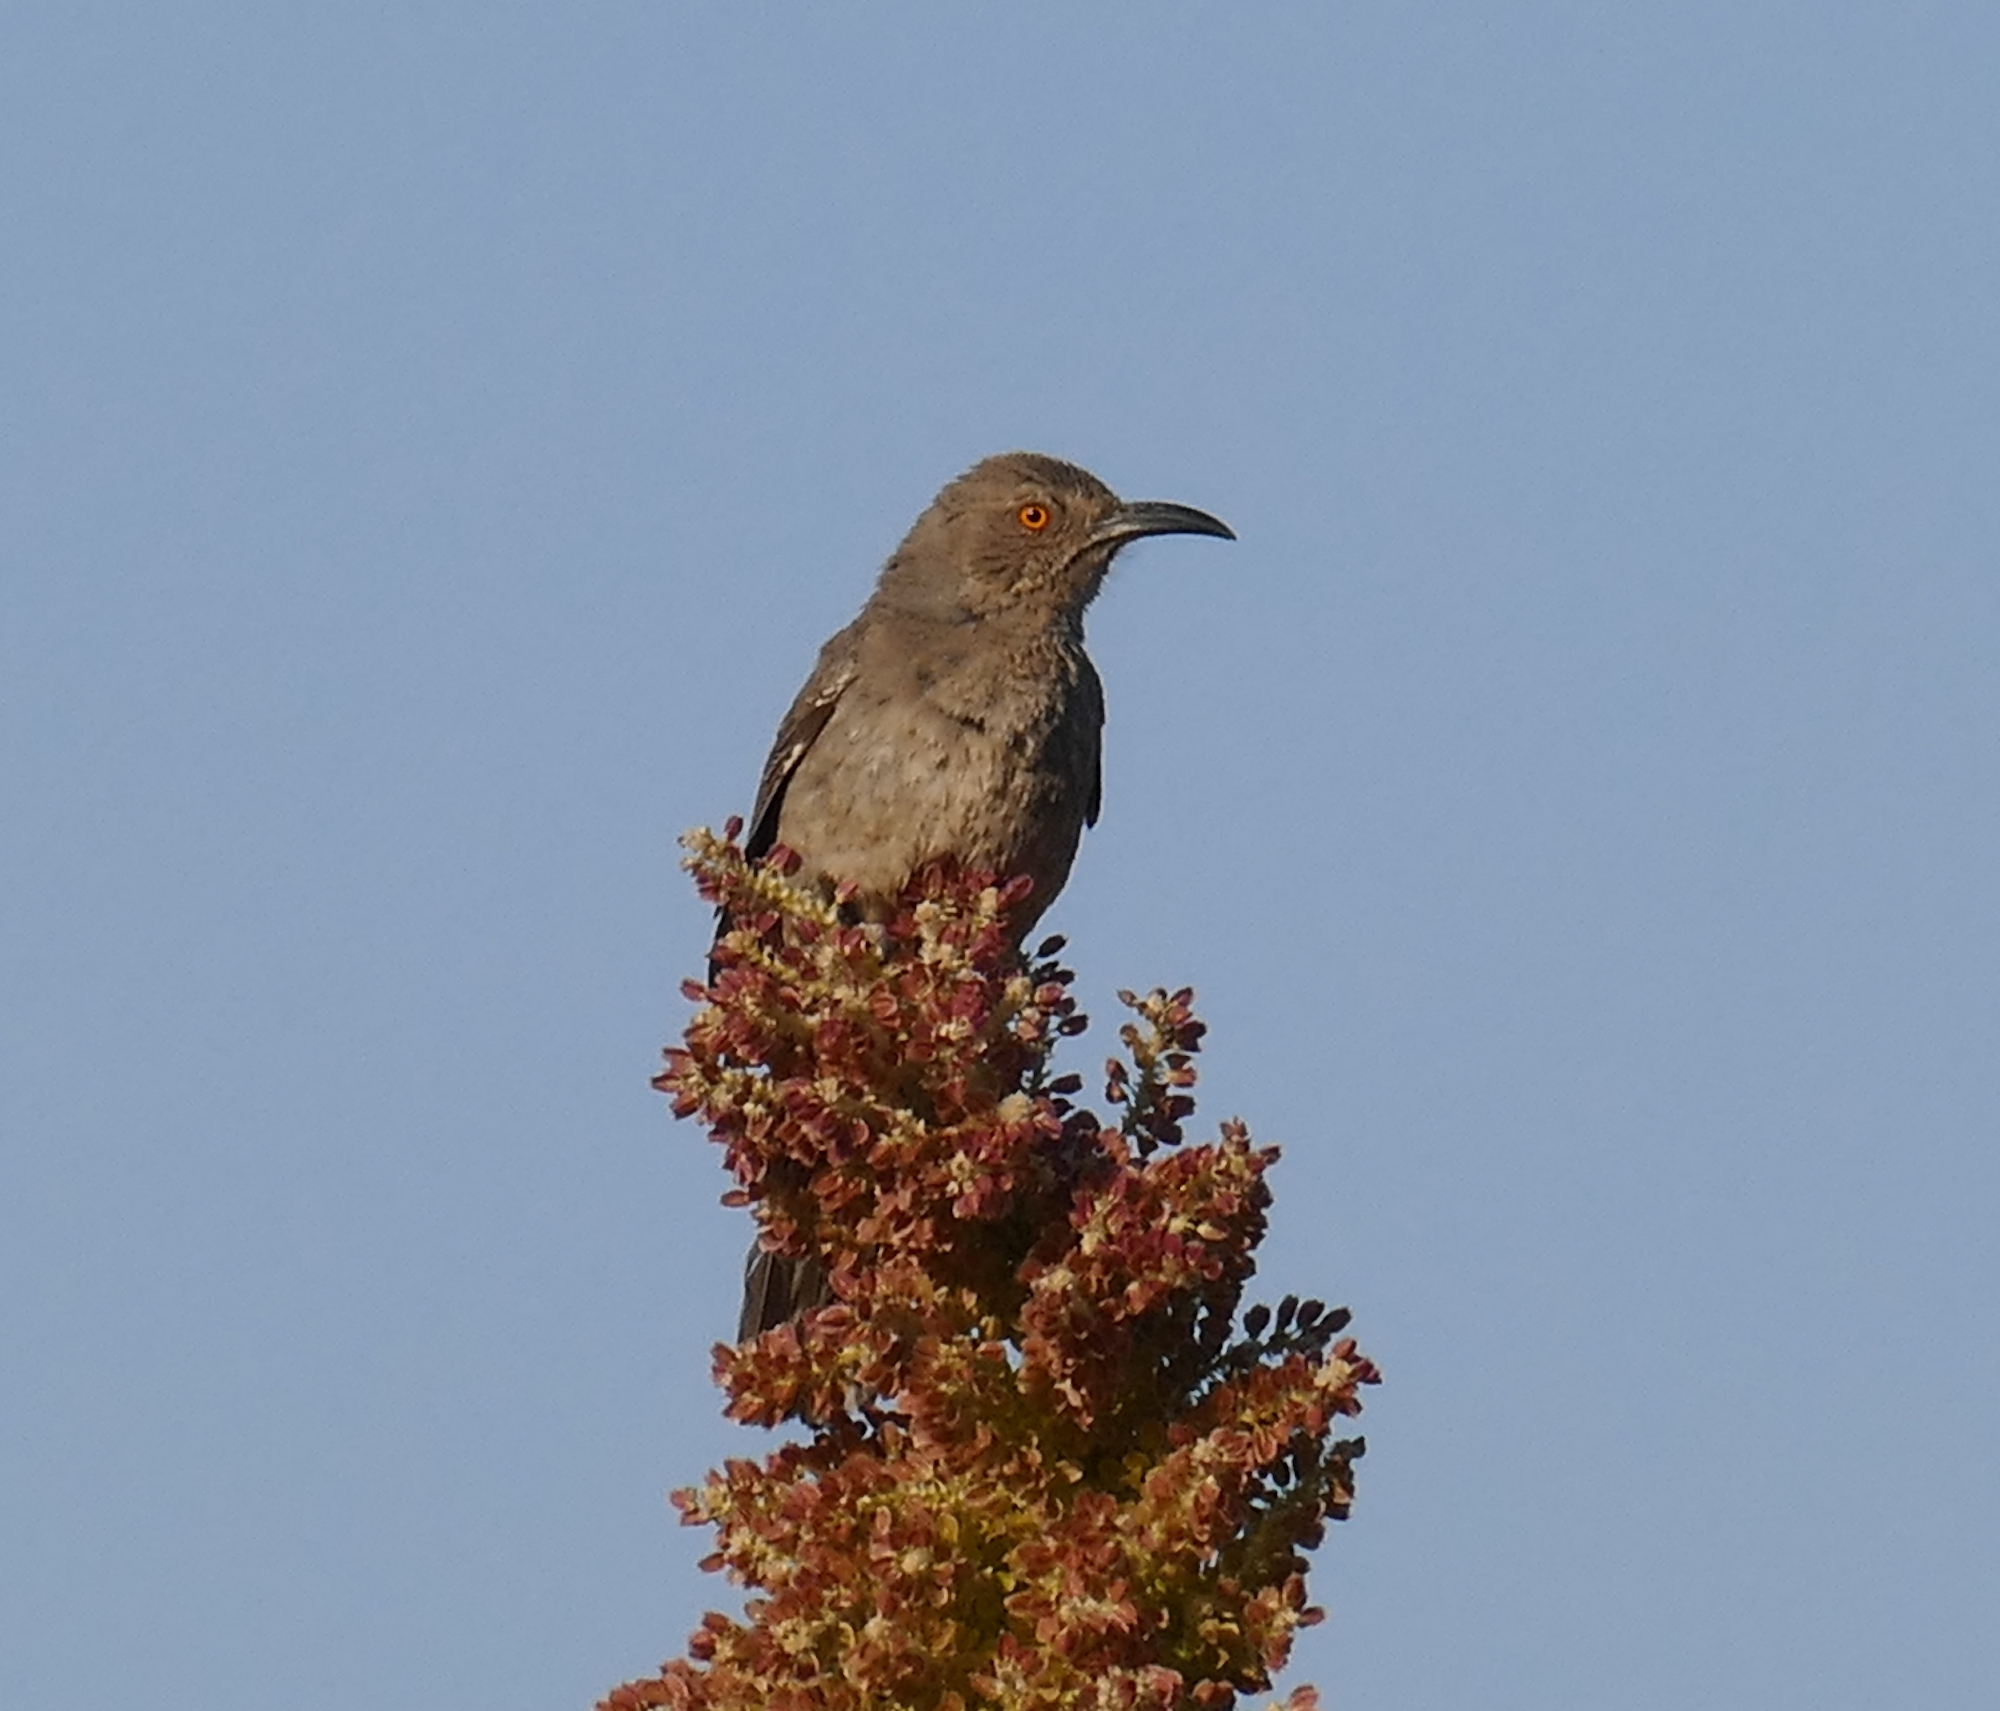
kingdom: Animalia
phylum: Chordata
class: Aves
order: Passeriformes
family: Mimidae
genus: Toxostoma
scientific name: Toxostoma curvirostre
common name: Curve-billed thrasher
